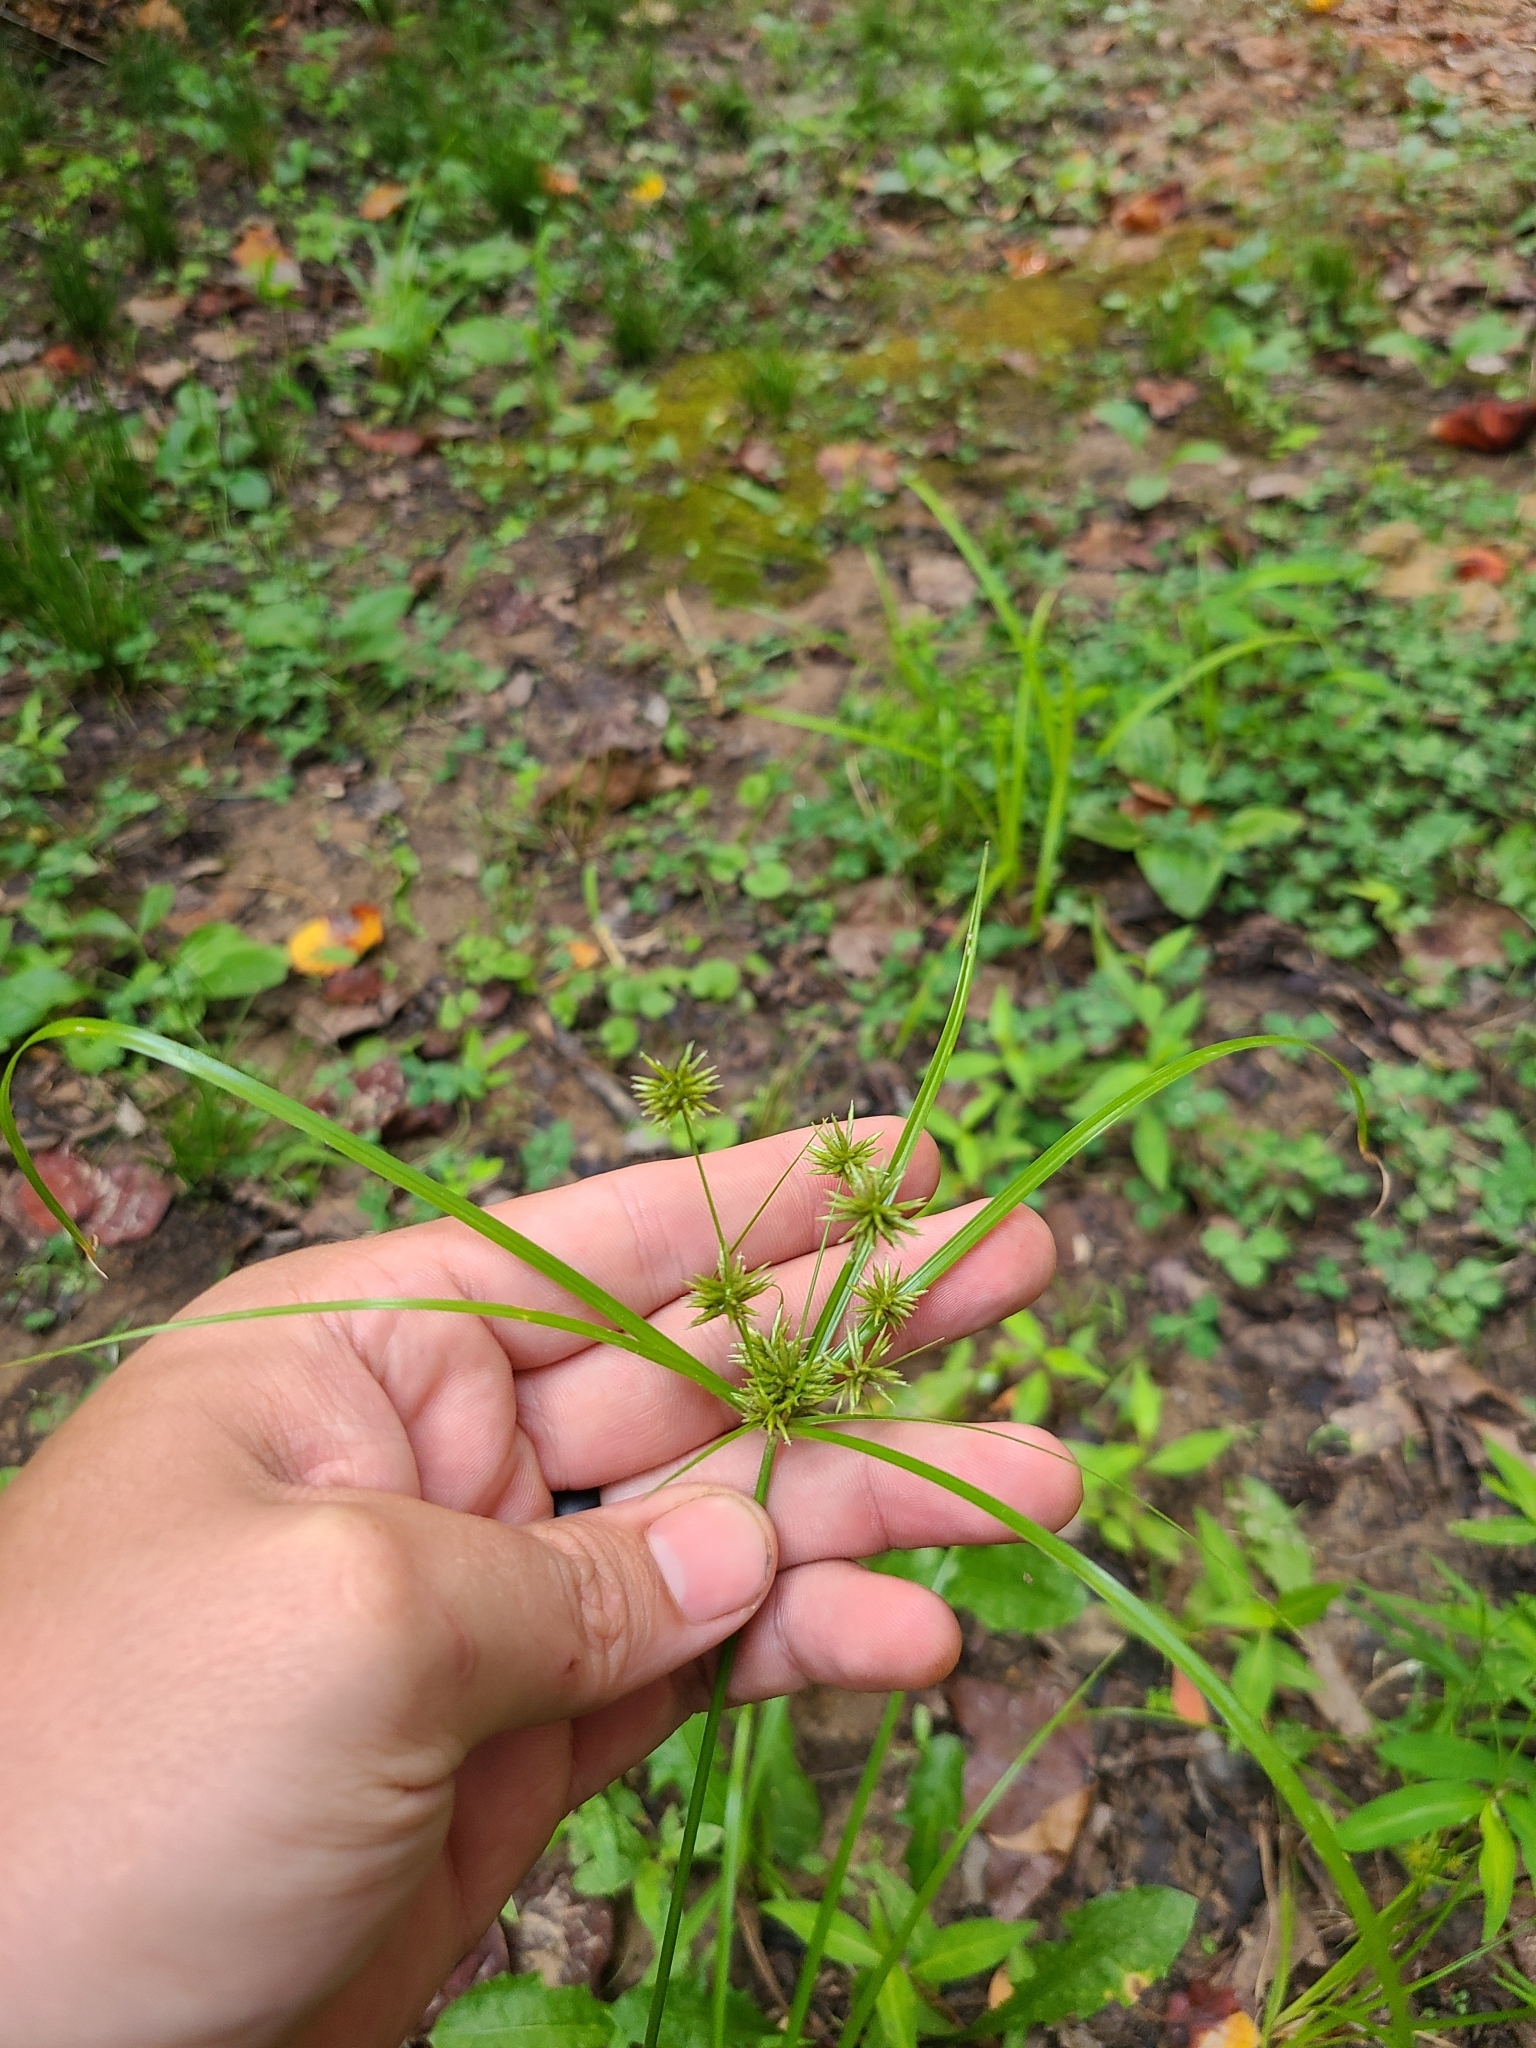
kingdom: Plantae
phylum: Tracheophyta
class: Liliopsida
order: Poales
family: Cyperaceae
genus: Cyperus
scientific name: Cyperus croceus
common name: Baldwin's flatsedge
